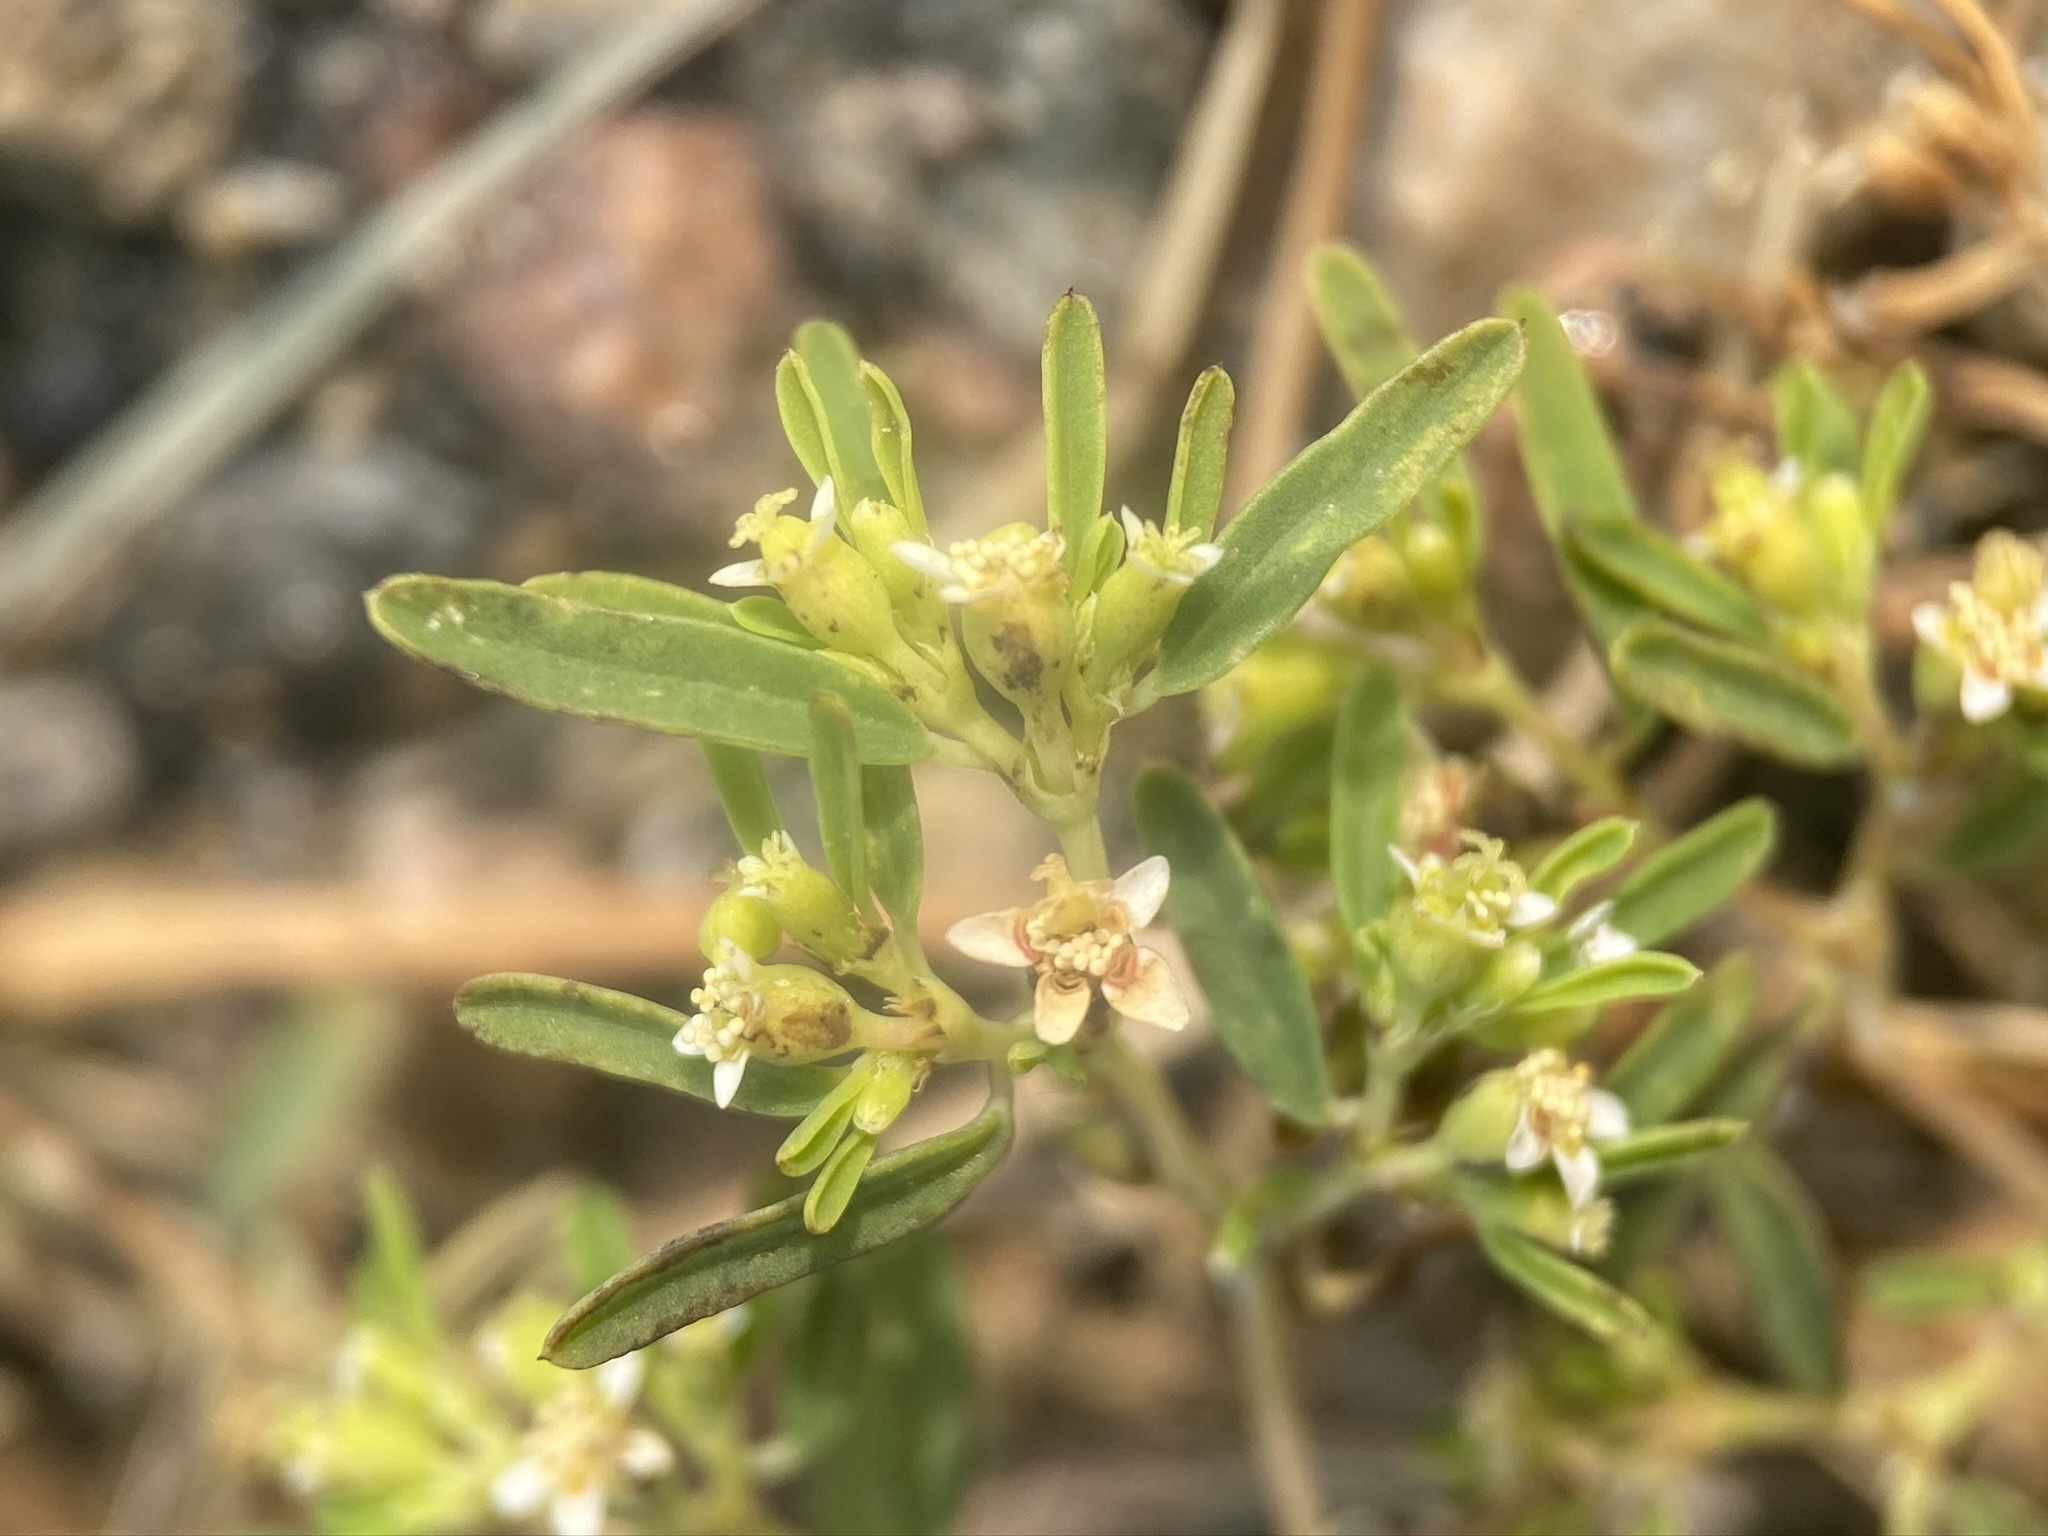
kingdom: Plantae
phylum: Tracheophyta
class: Magnoliopsida
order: Malpighiales
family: Euphorbiaceae
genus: Euphorbia
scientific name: Euphorbia missurica
